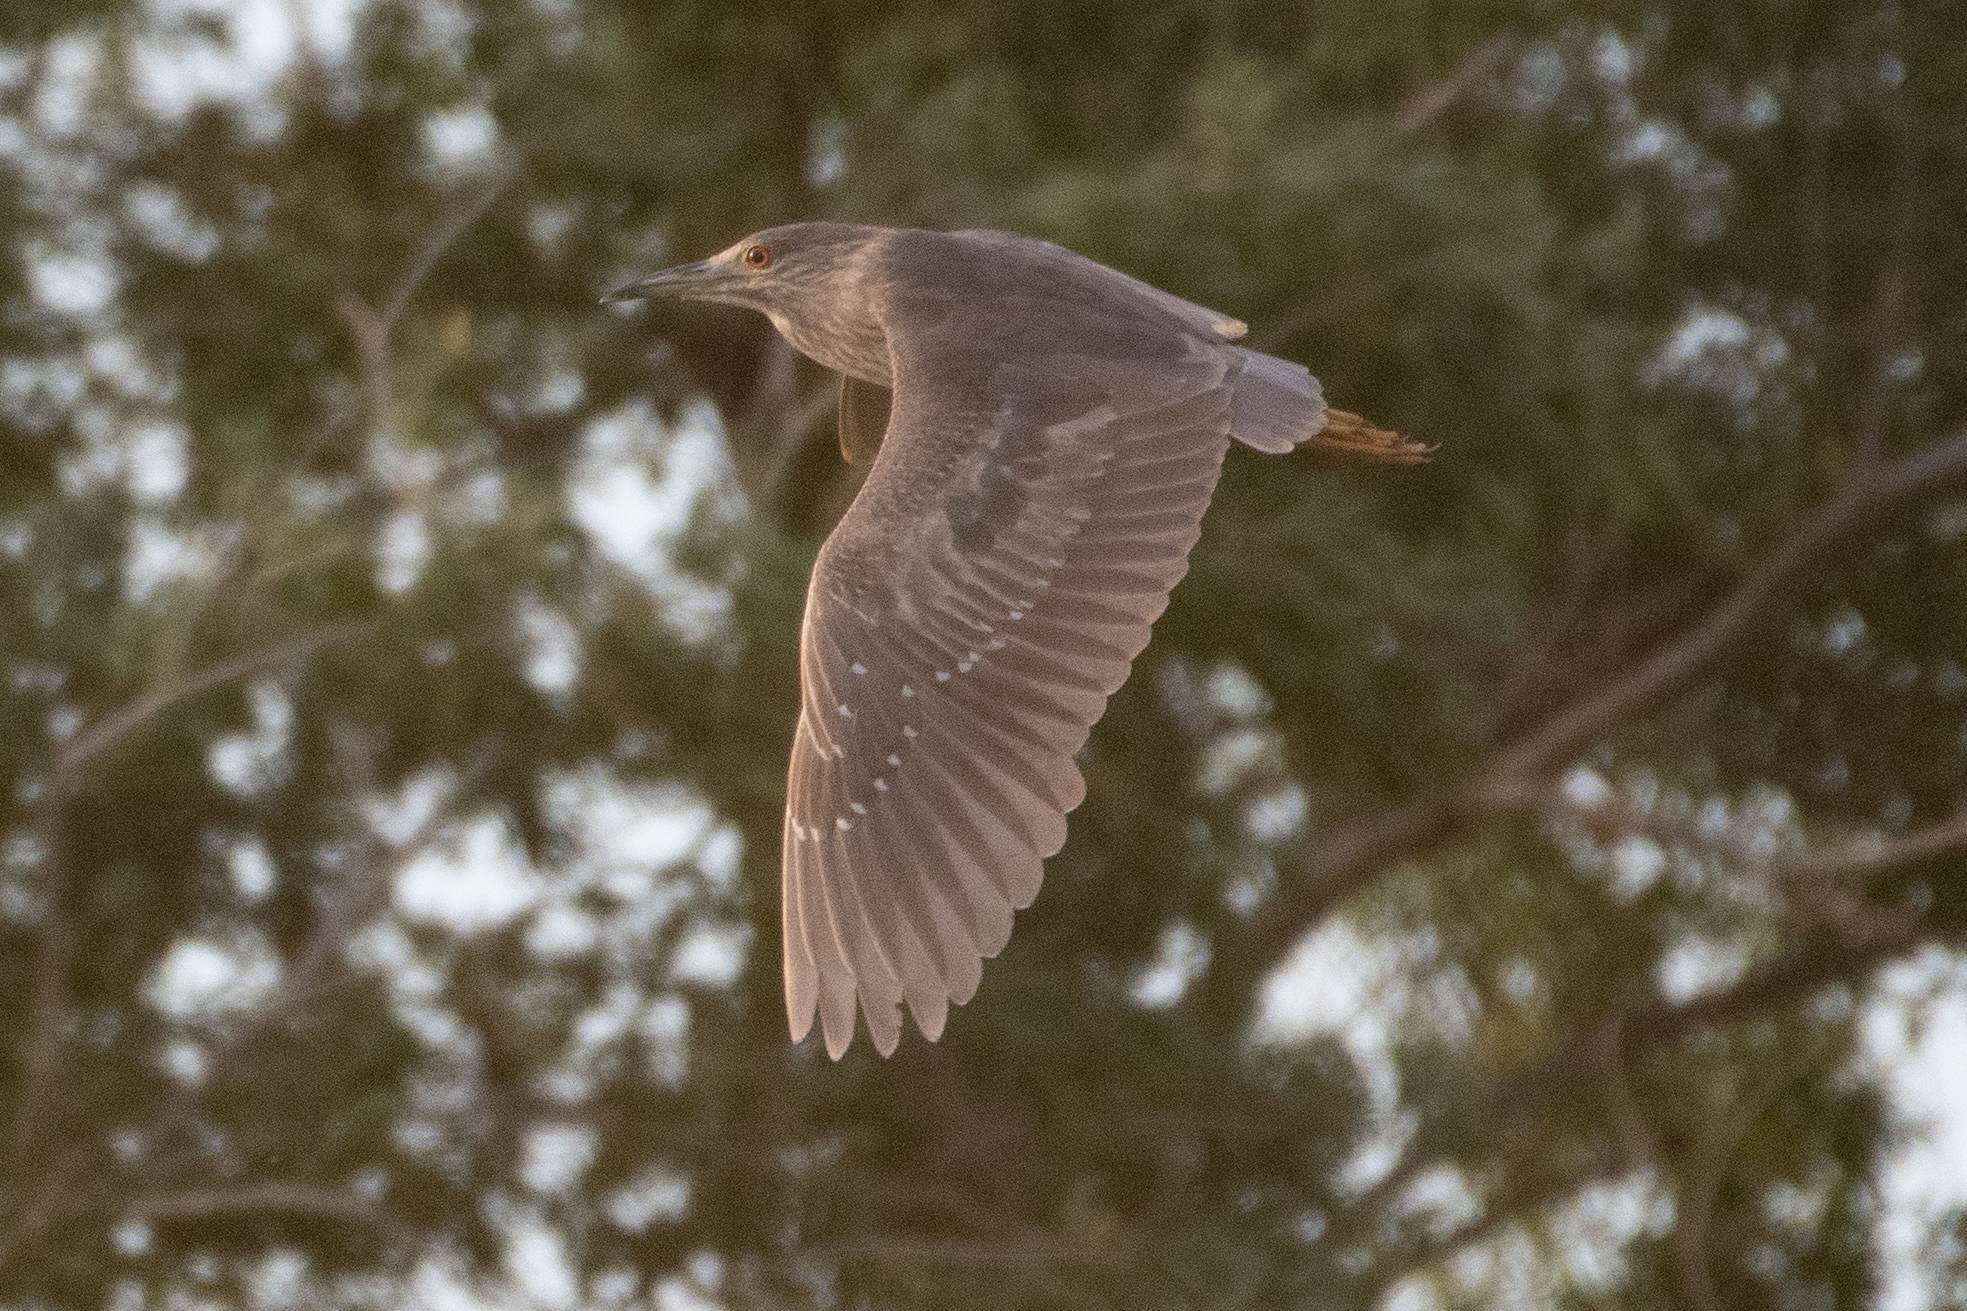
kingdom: Animalia
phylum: Chordata
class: Aves
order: Pelecaniformes
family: Ardeidae
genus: Nycticorax
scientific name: Nycticorax nycticorax
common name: Black-crowned night heron
